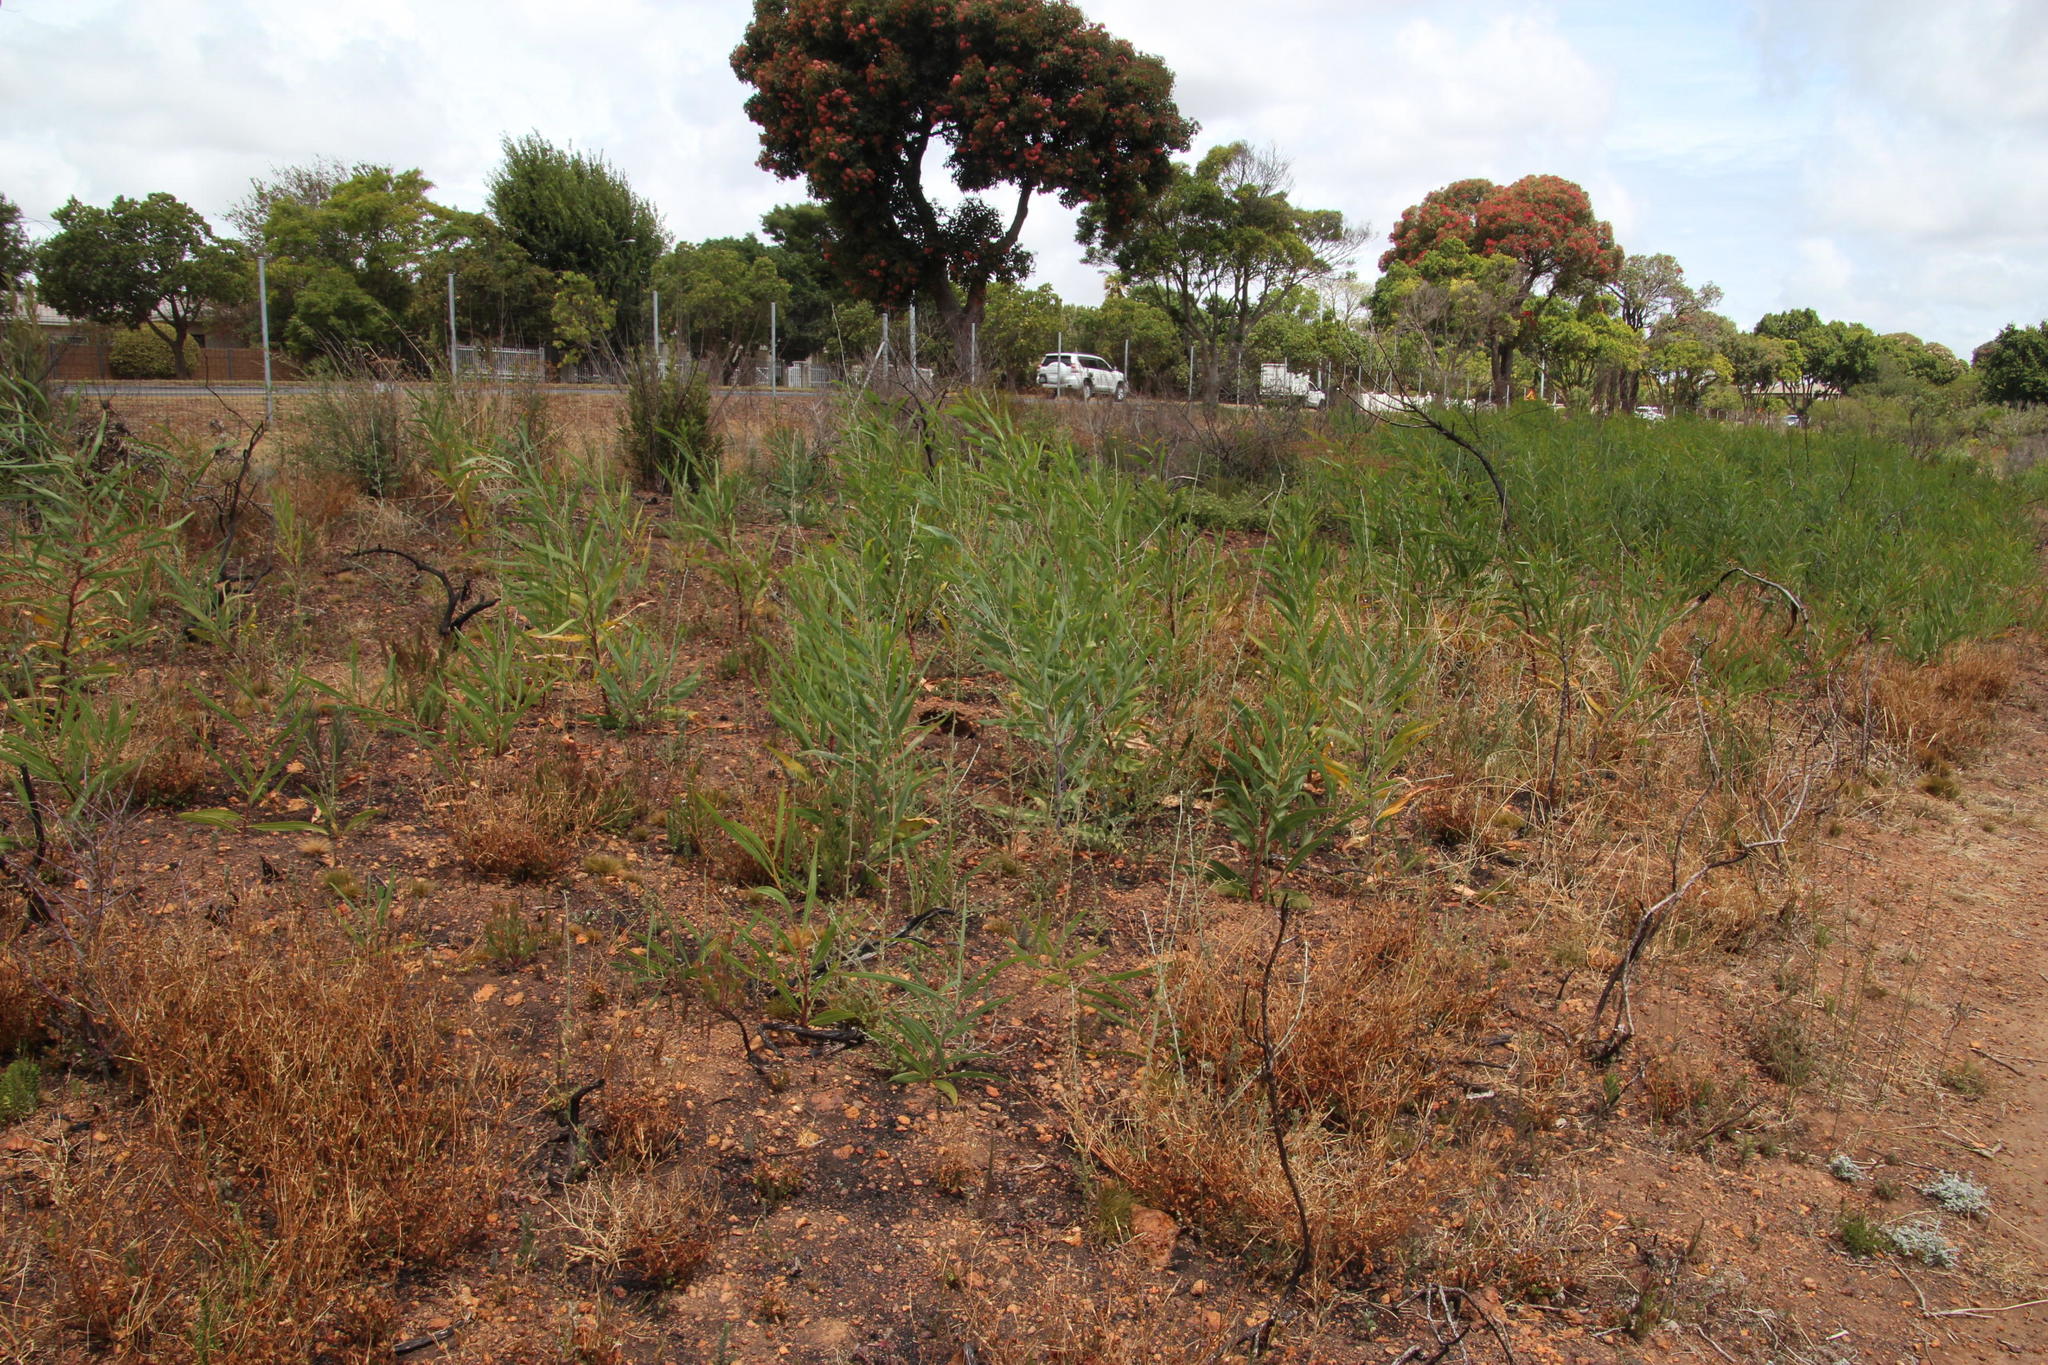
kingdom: Plantae
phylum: Tracheophyta
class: Magnoliopsida
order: Fabales
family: Fabaceae
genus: Psoralea
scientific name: Psoralea hirta
